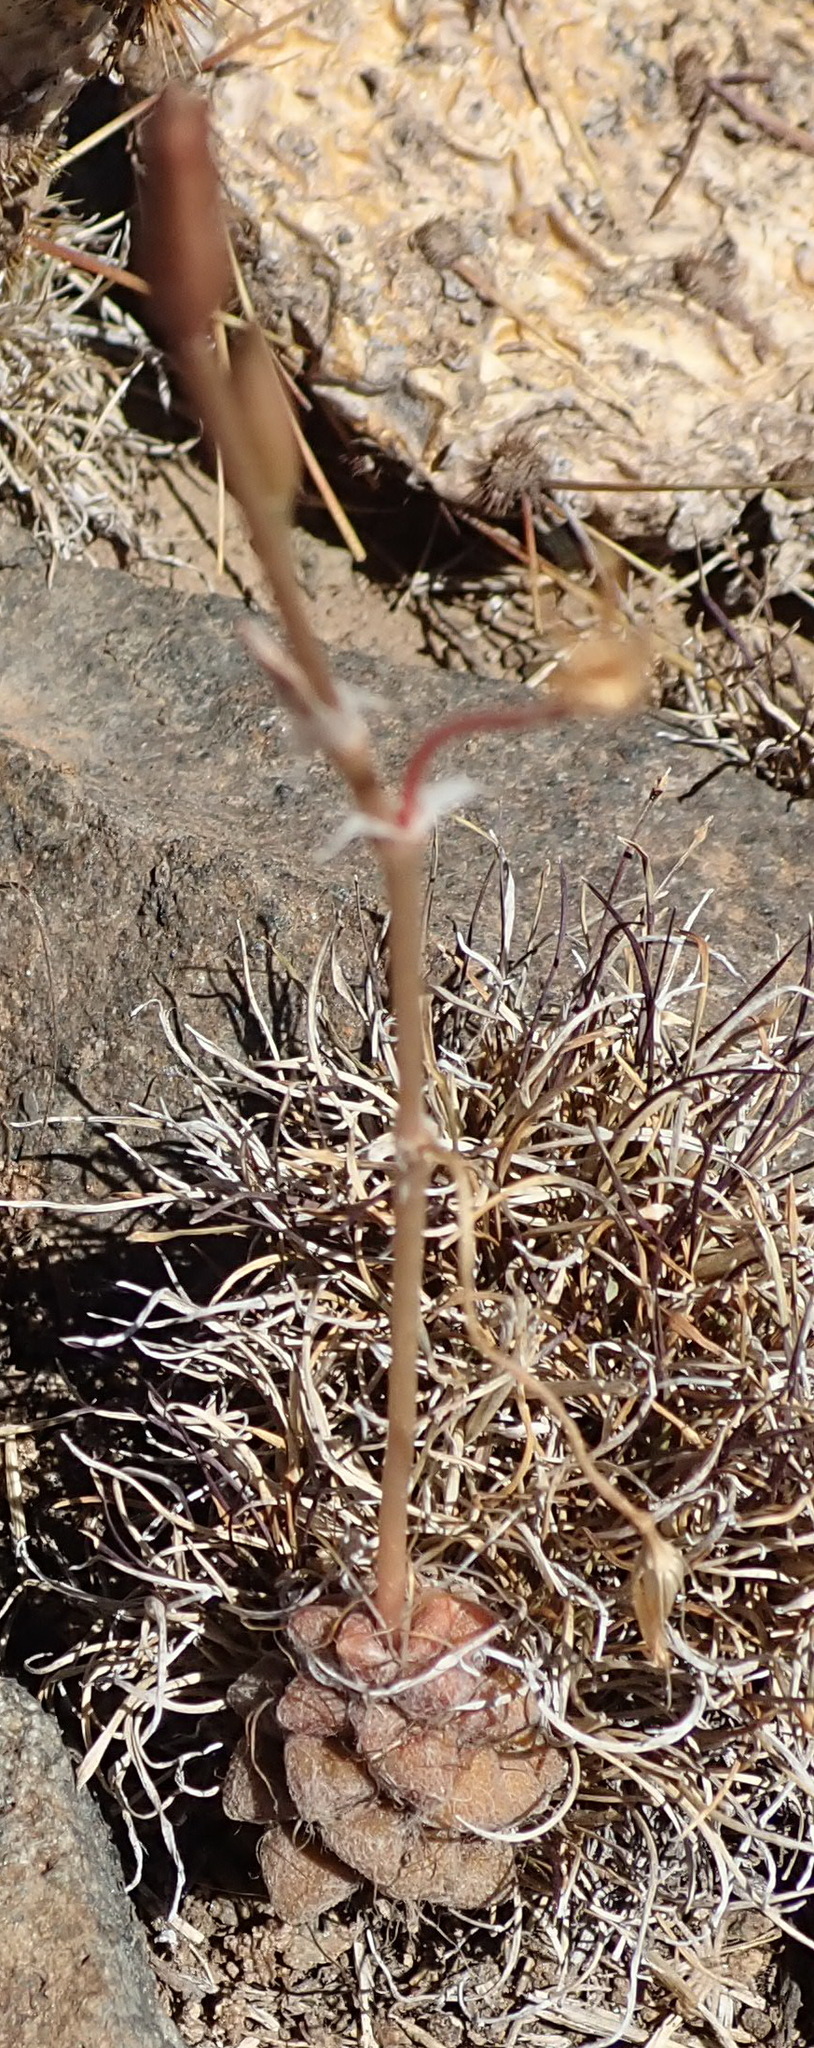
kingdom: Plantae
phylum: Tracheophyta
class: Magnoliopsida
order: Caryophyllales
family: Anacampserotaceae
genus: Anacampseros
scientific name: Anacampseros filamentosa
